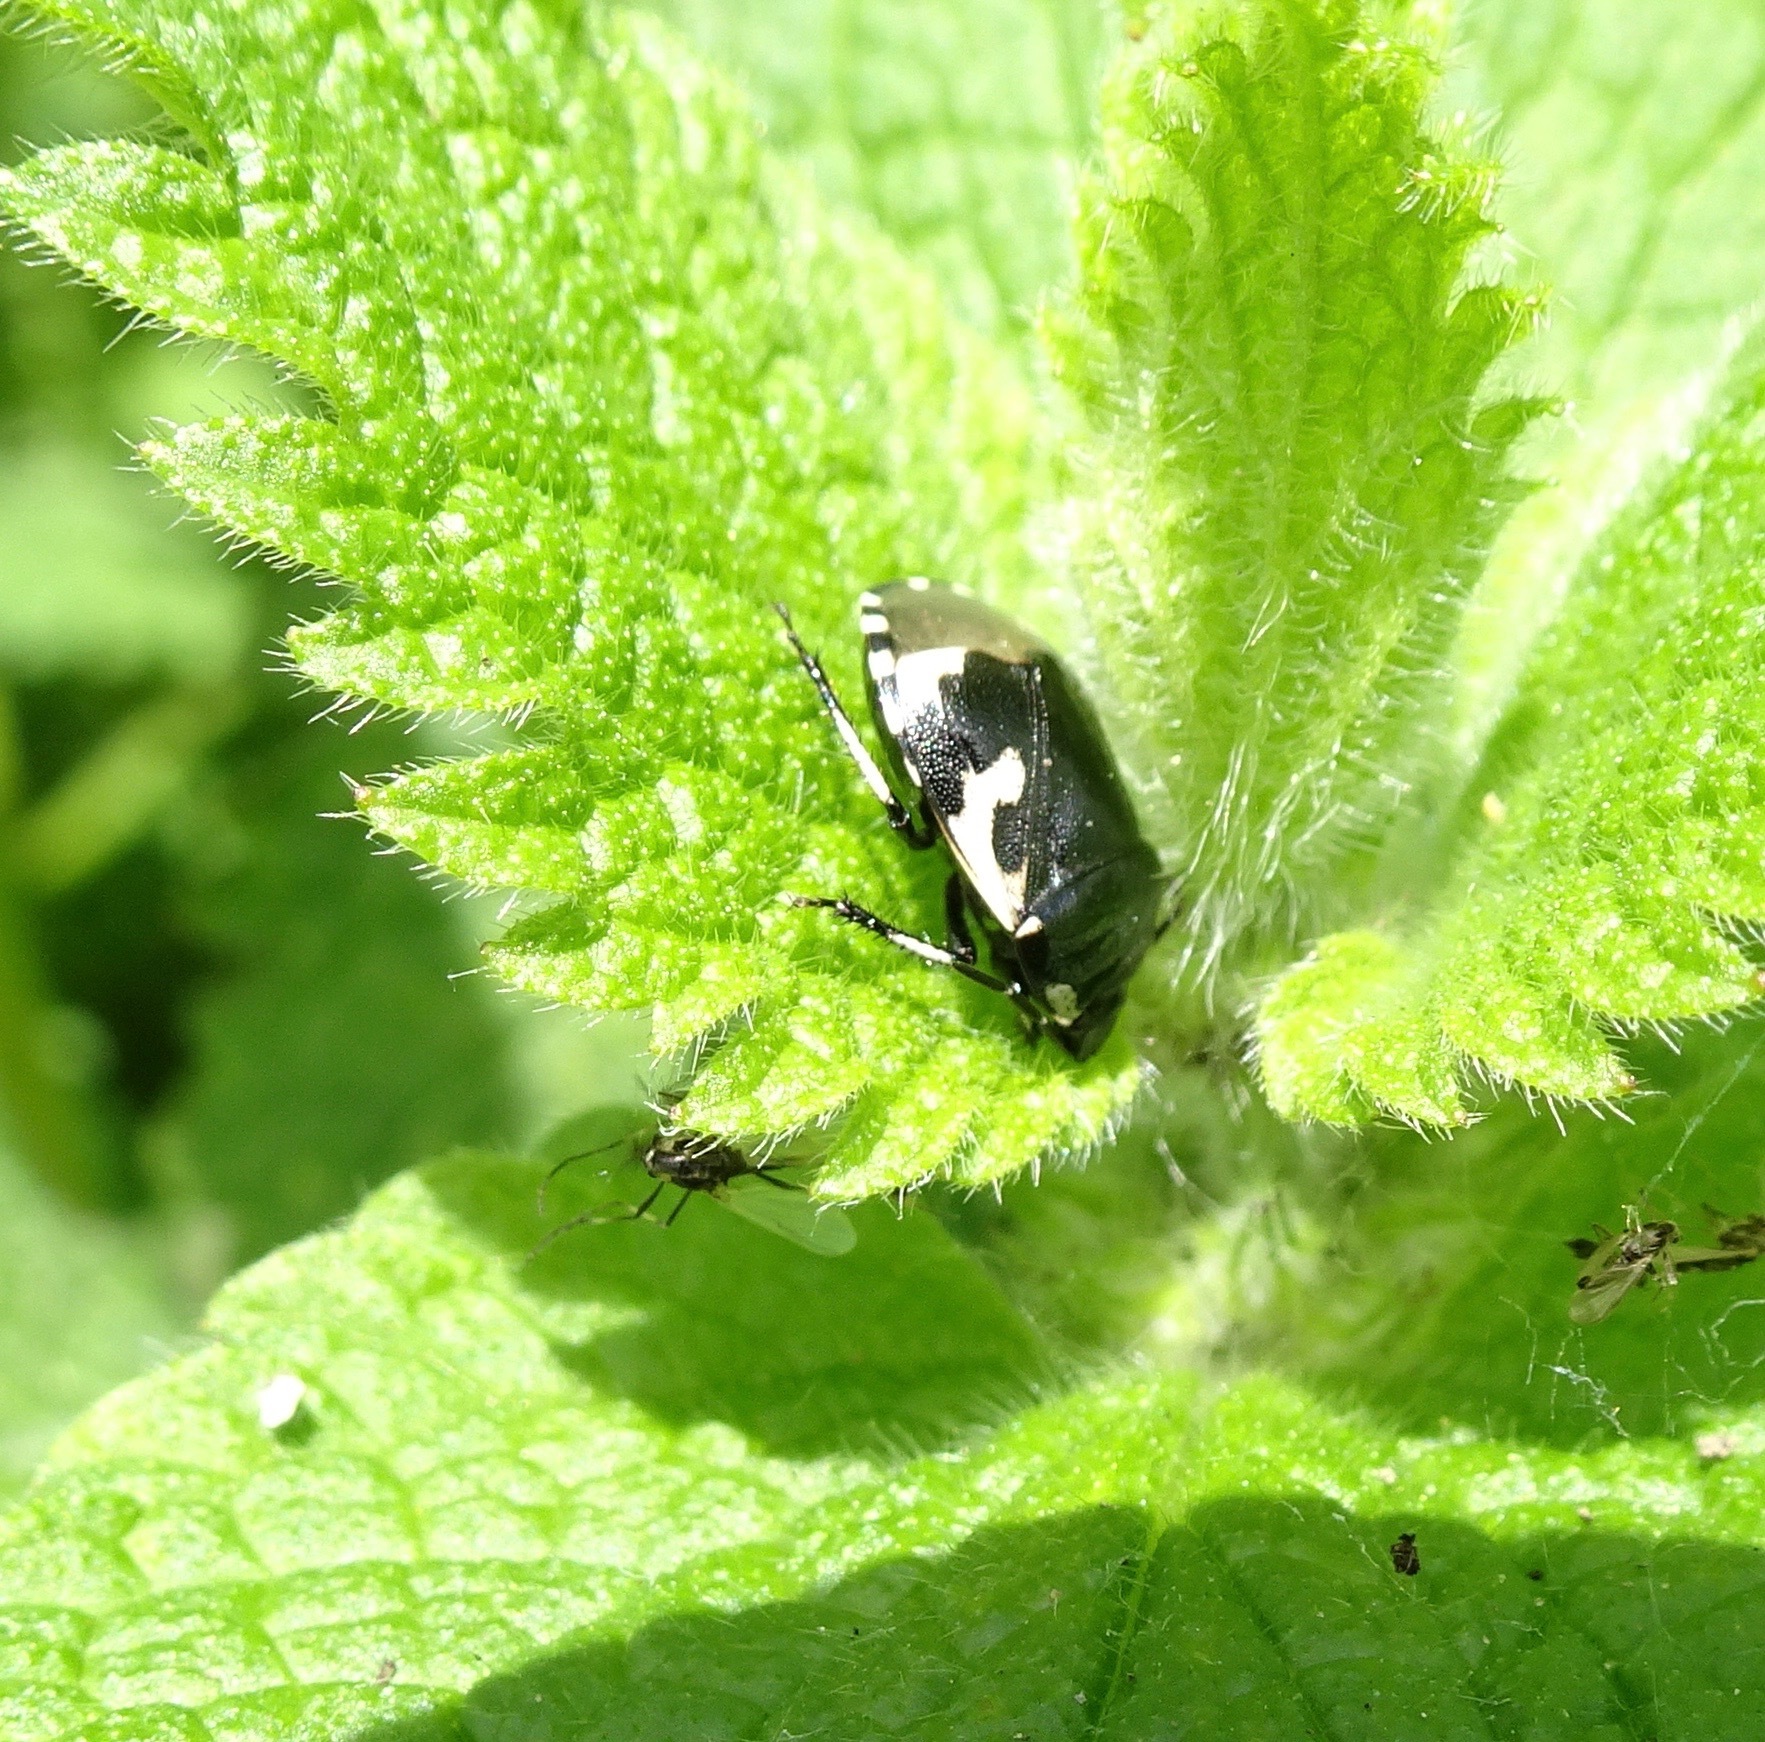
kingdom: Animalia
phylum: Arthropoda
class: Insecta
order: Hemiptera
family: Cydnidae
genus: Tritomegas
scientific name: Tritomegas bicolor
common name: Pied shieldbug
